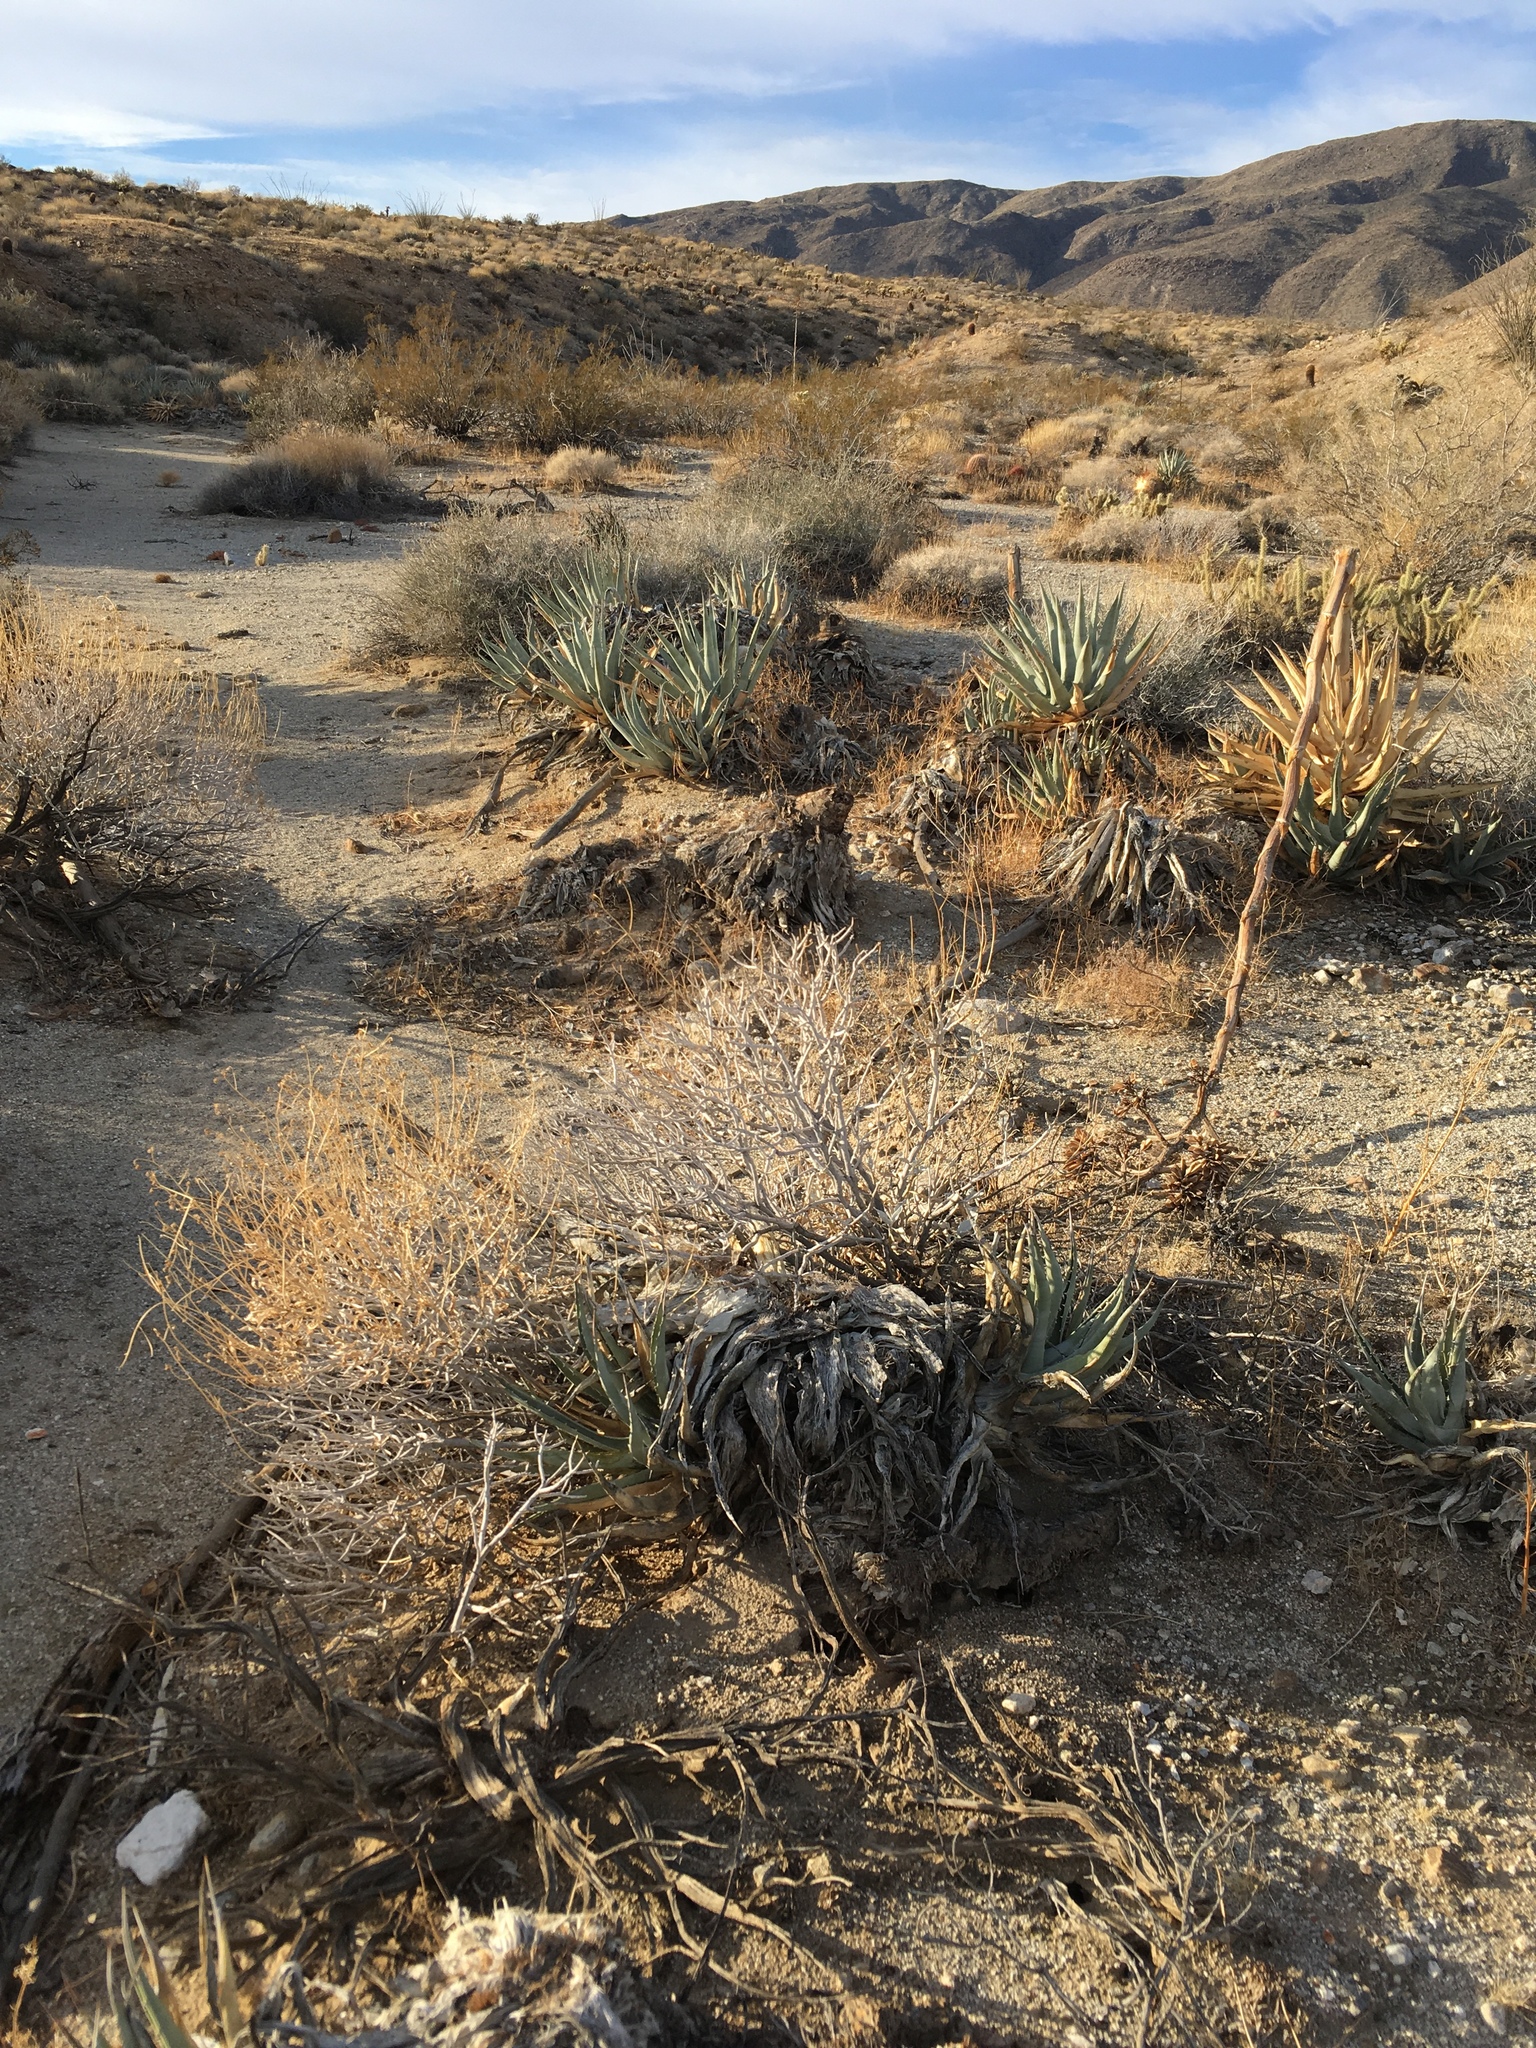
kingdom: Plantae
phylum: Tracheophyta
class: Liliopsida
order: Asparagales
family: Asparagaceae
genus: Agave
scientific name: Agave deserti
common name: Desert agave
